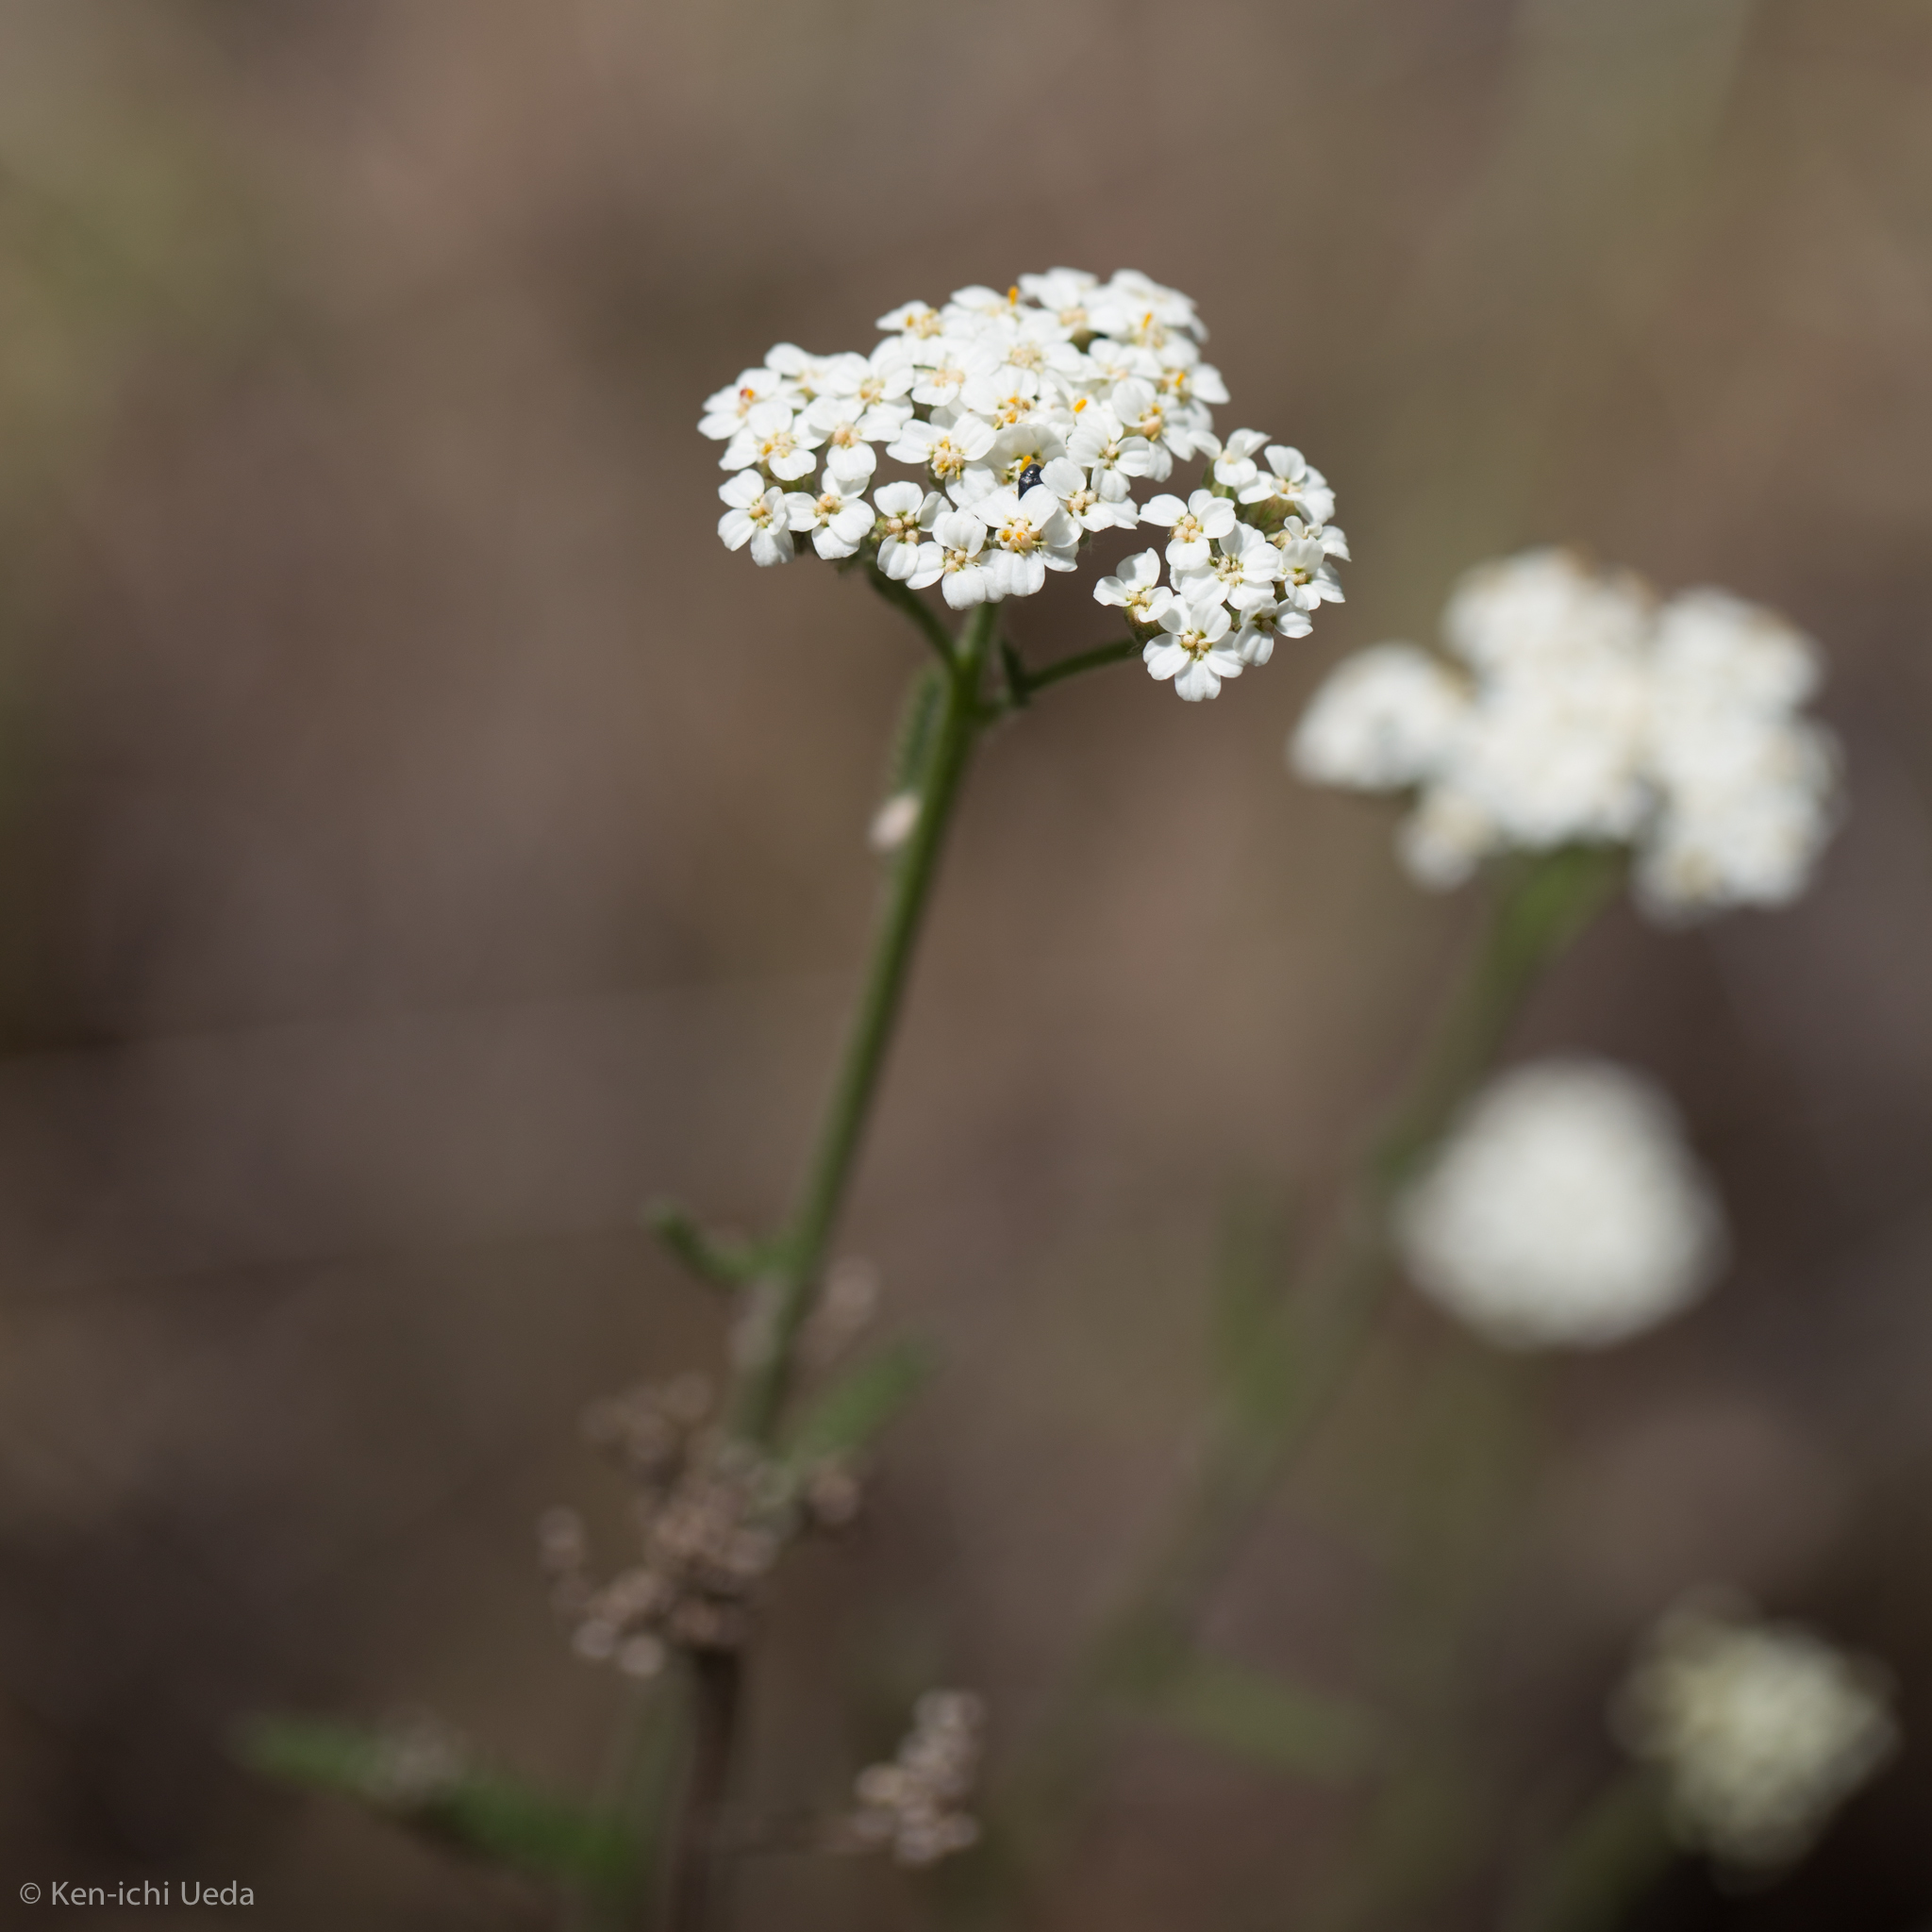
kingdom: Plantae
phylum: Tracheophyta
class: Magnoliopsida
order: Asterales
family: Asteraceae
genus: Achillea
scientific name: Achillea millefolium
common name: Yarrow
